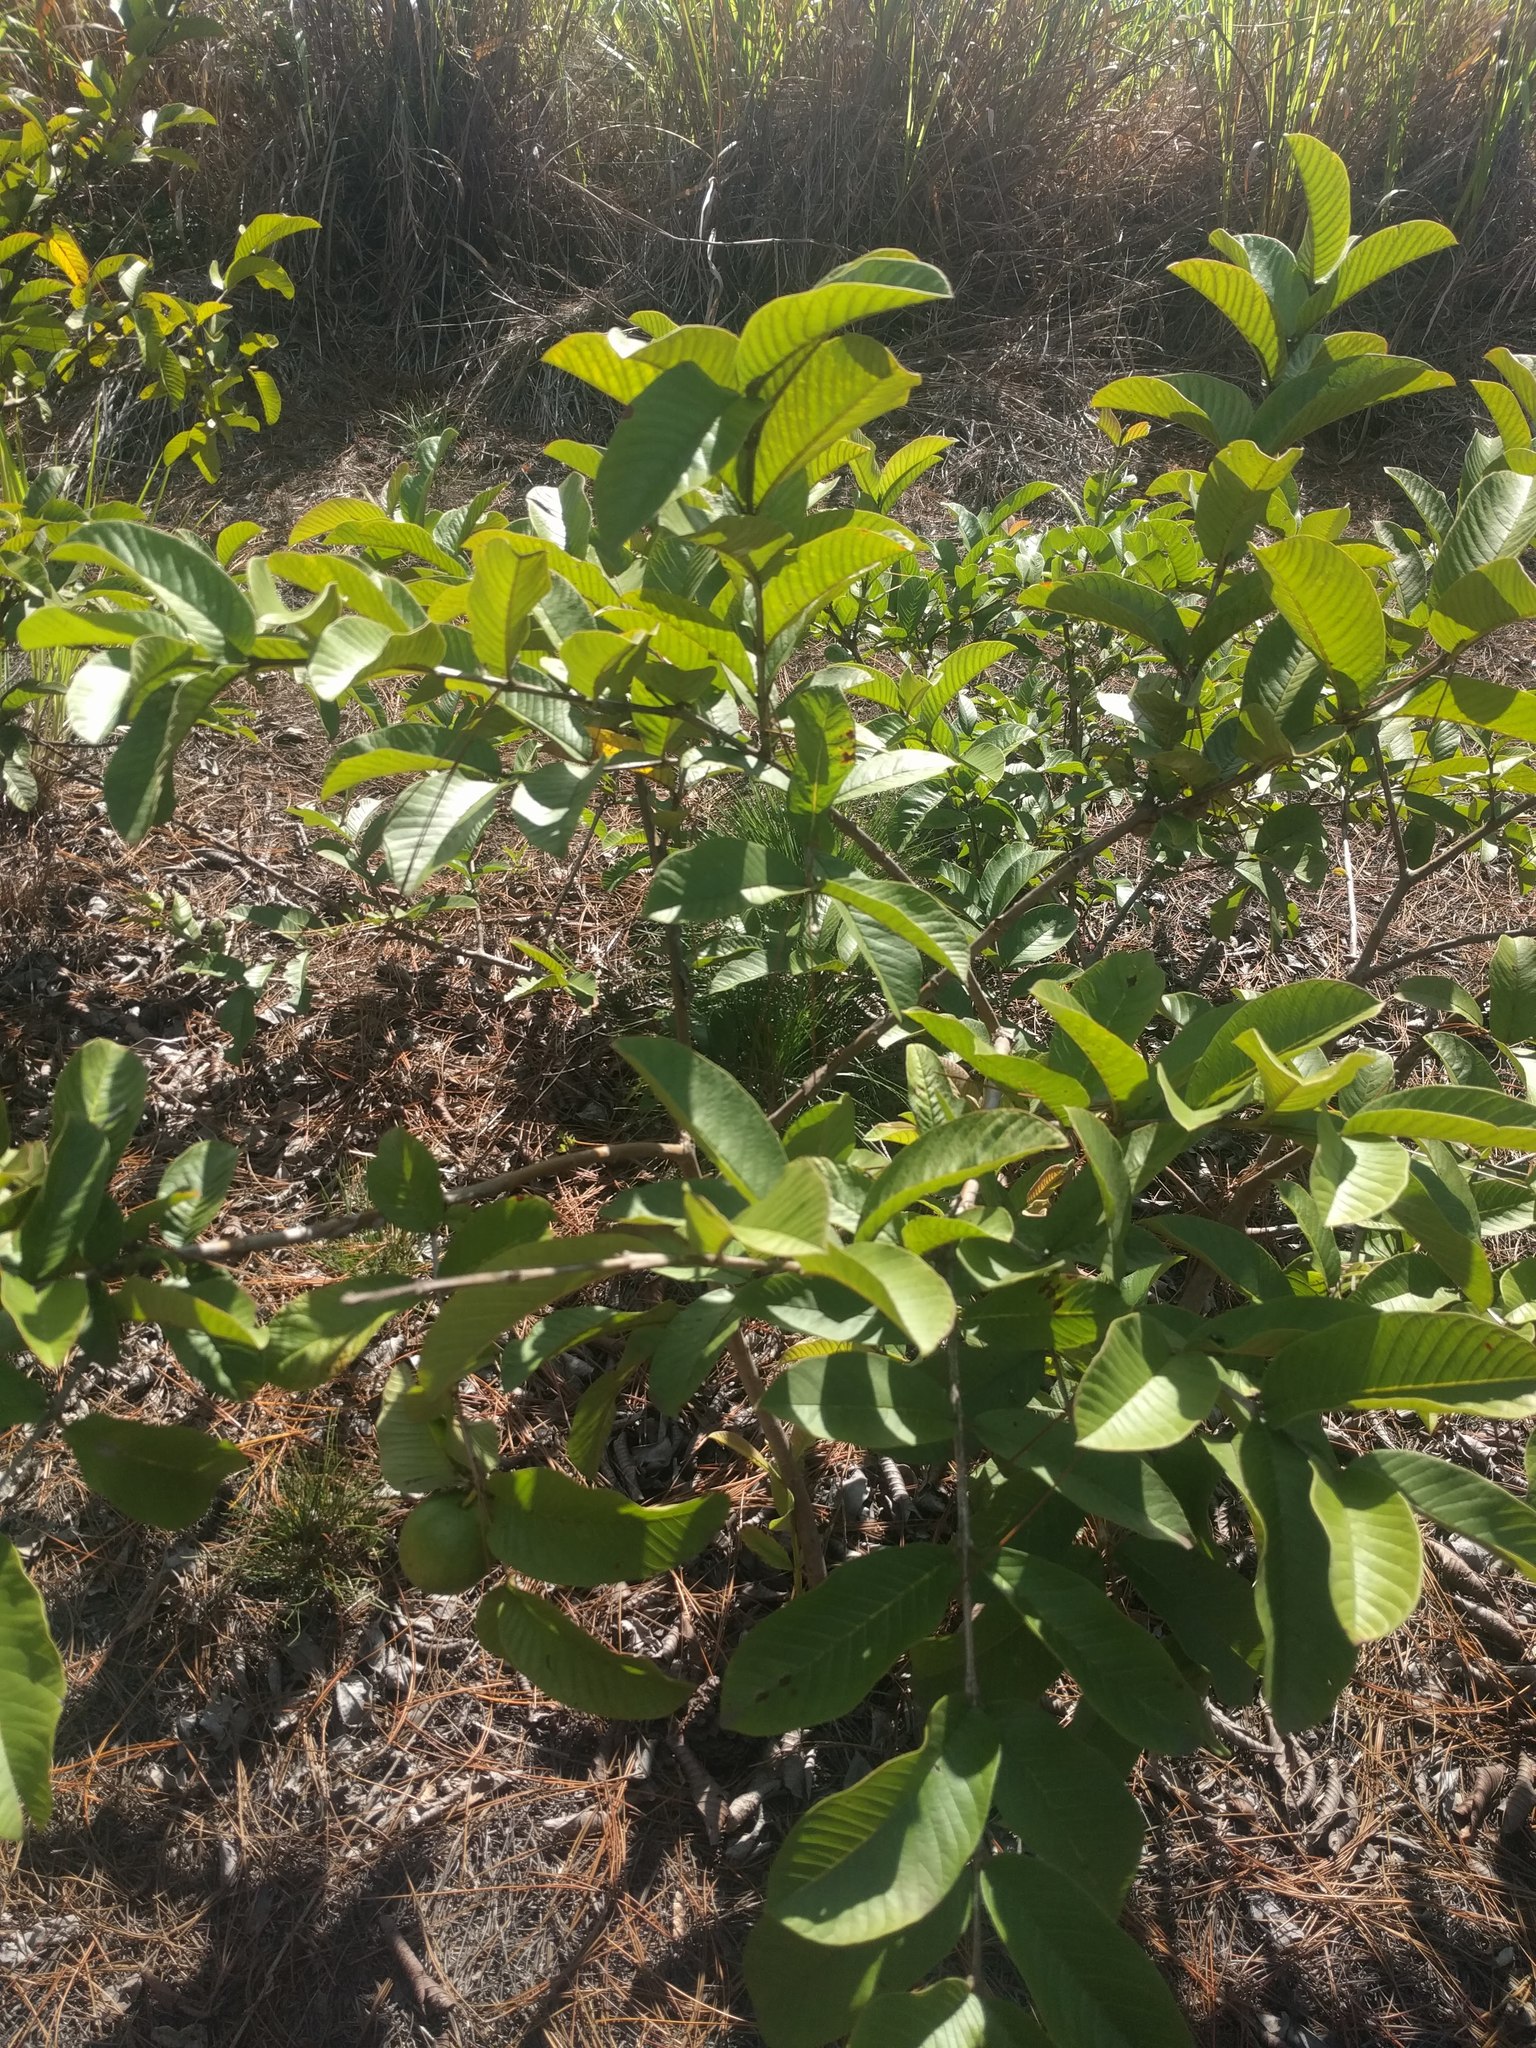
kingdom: Plantae
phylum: Tracheophyta
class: Magnoliopsida
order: Myrtales
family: Myrtaceae
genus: Psidium
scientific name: Psidium guajava
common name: Guava
